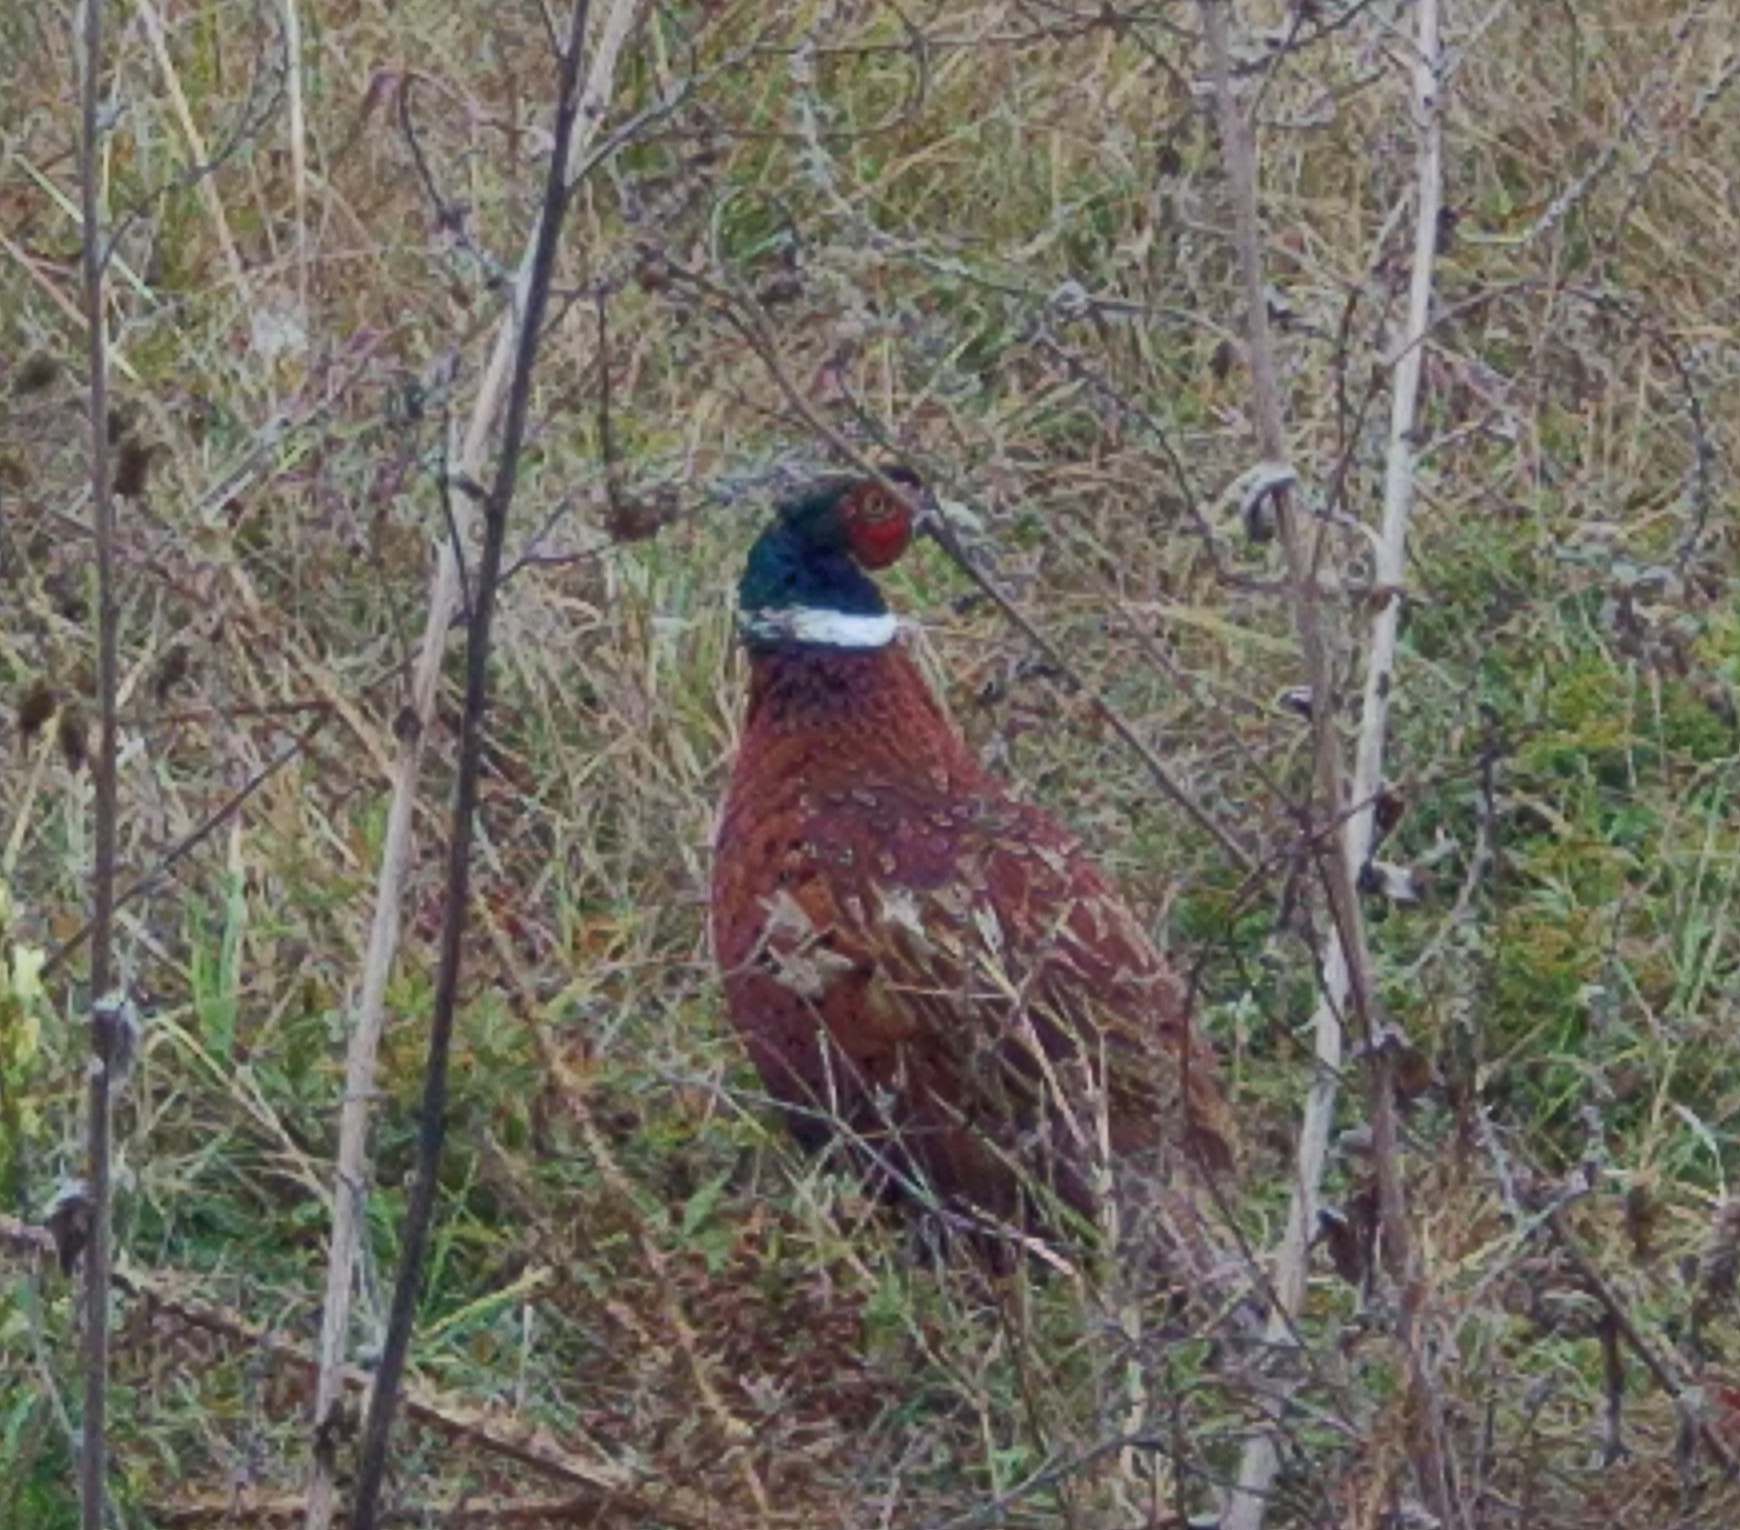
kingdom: Animalia
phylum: Chordata
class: Aves
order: Galliformes
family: Phasianidae
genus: Phasianus
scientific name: Phasianus colchicus
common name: Common pheasant
